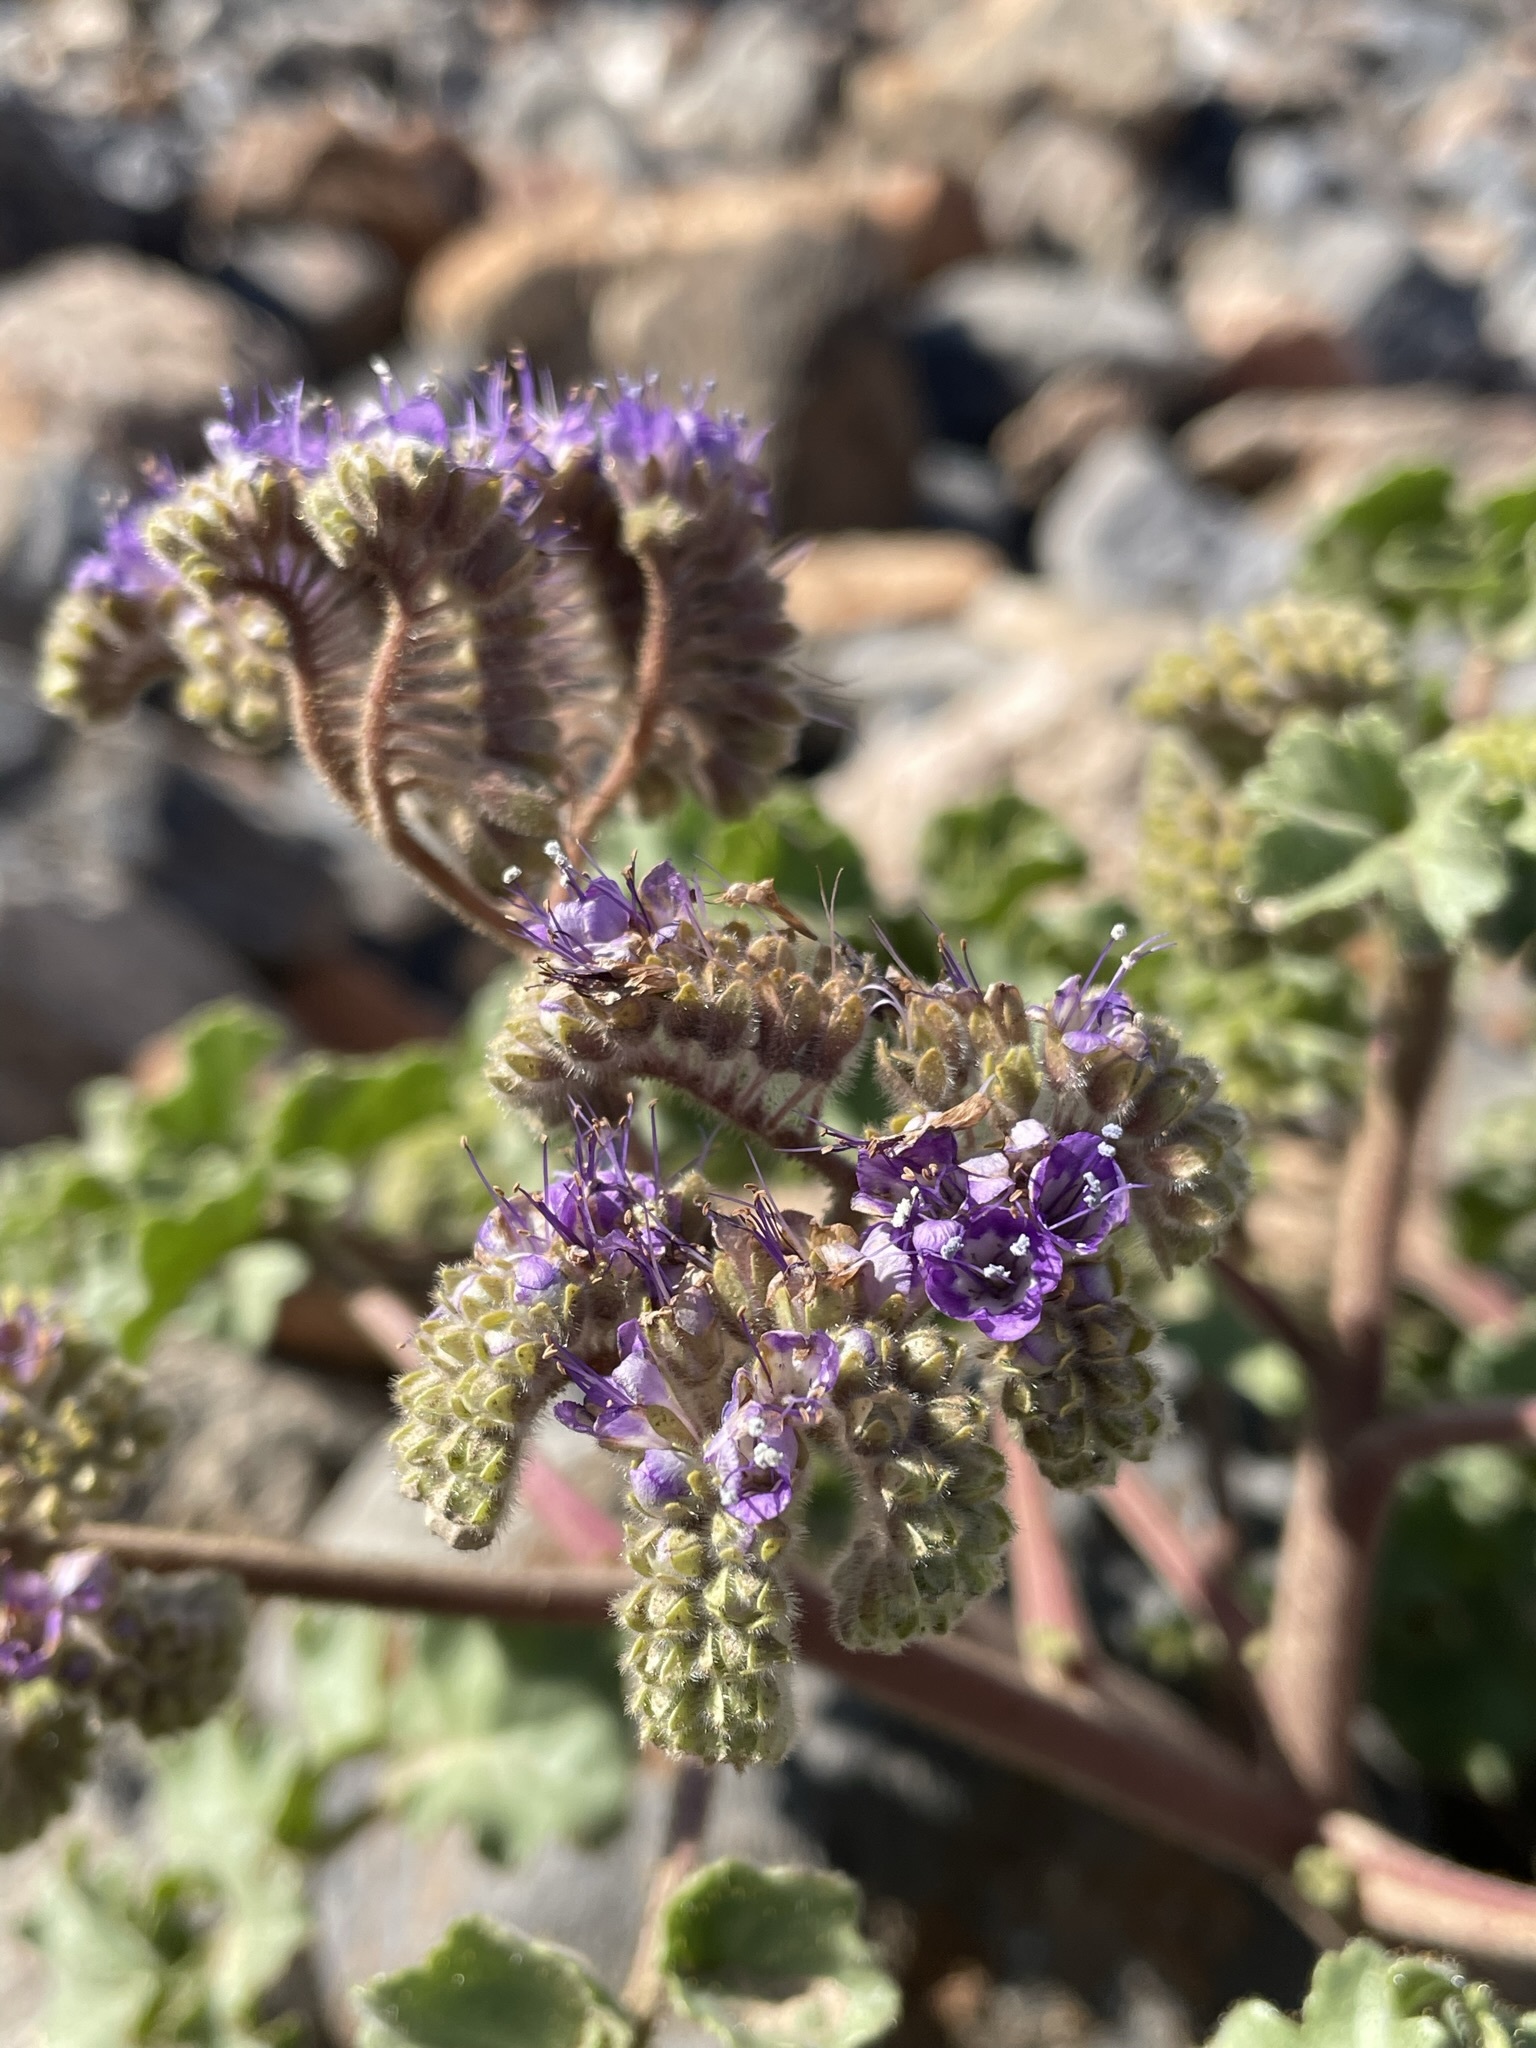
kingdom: Plantae
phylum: Tracheophyta
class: Magnoliopsida
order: Boraginales
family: Hydrophyllaceae
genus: Phacelia
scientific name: Phacelia pedicellata
